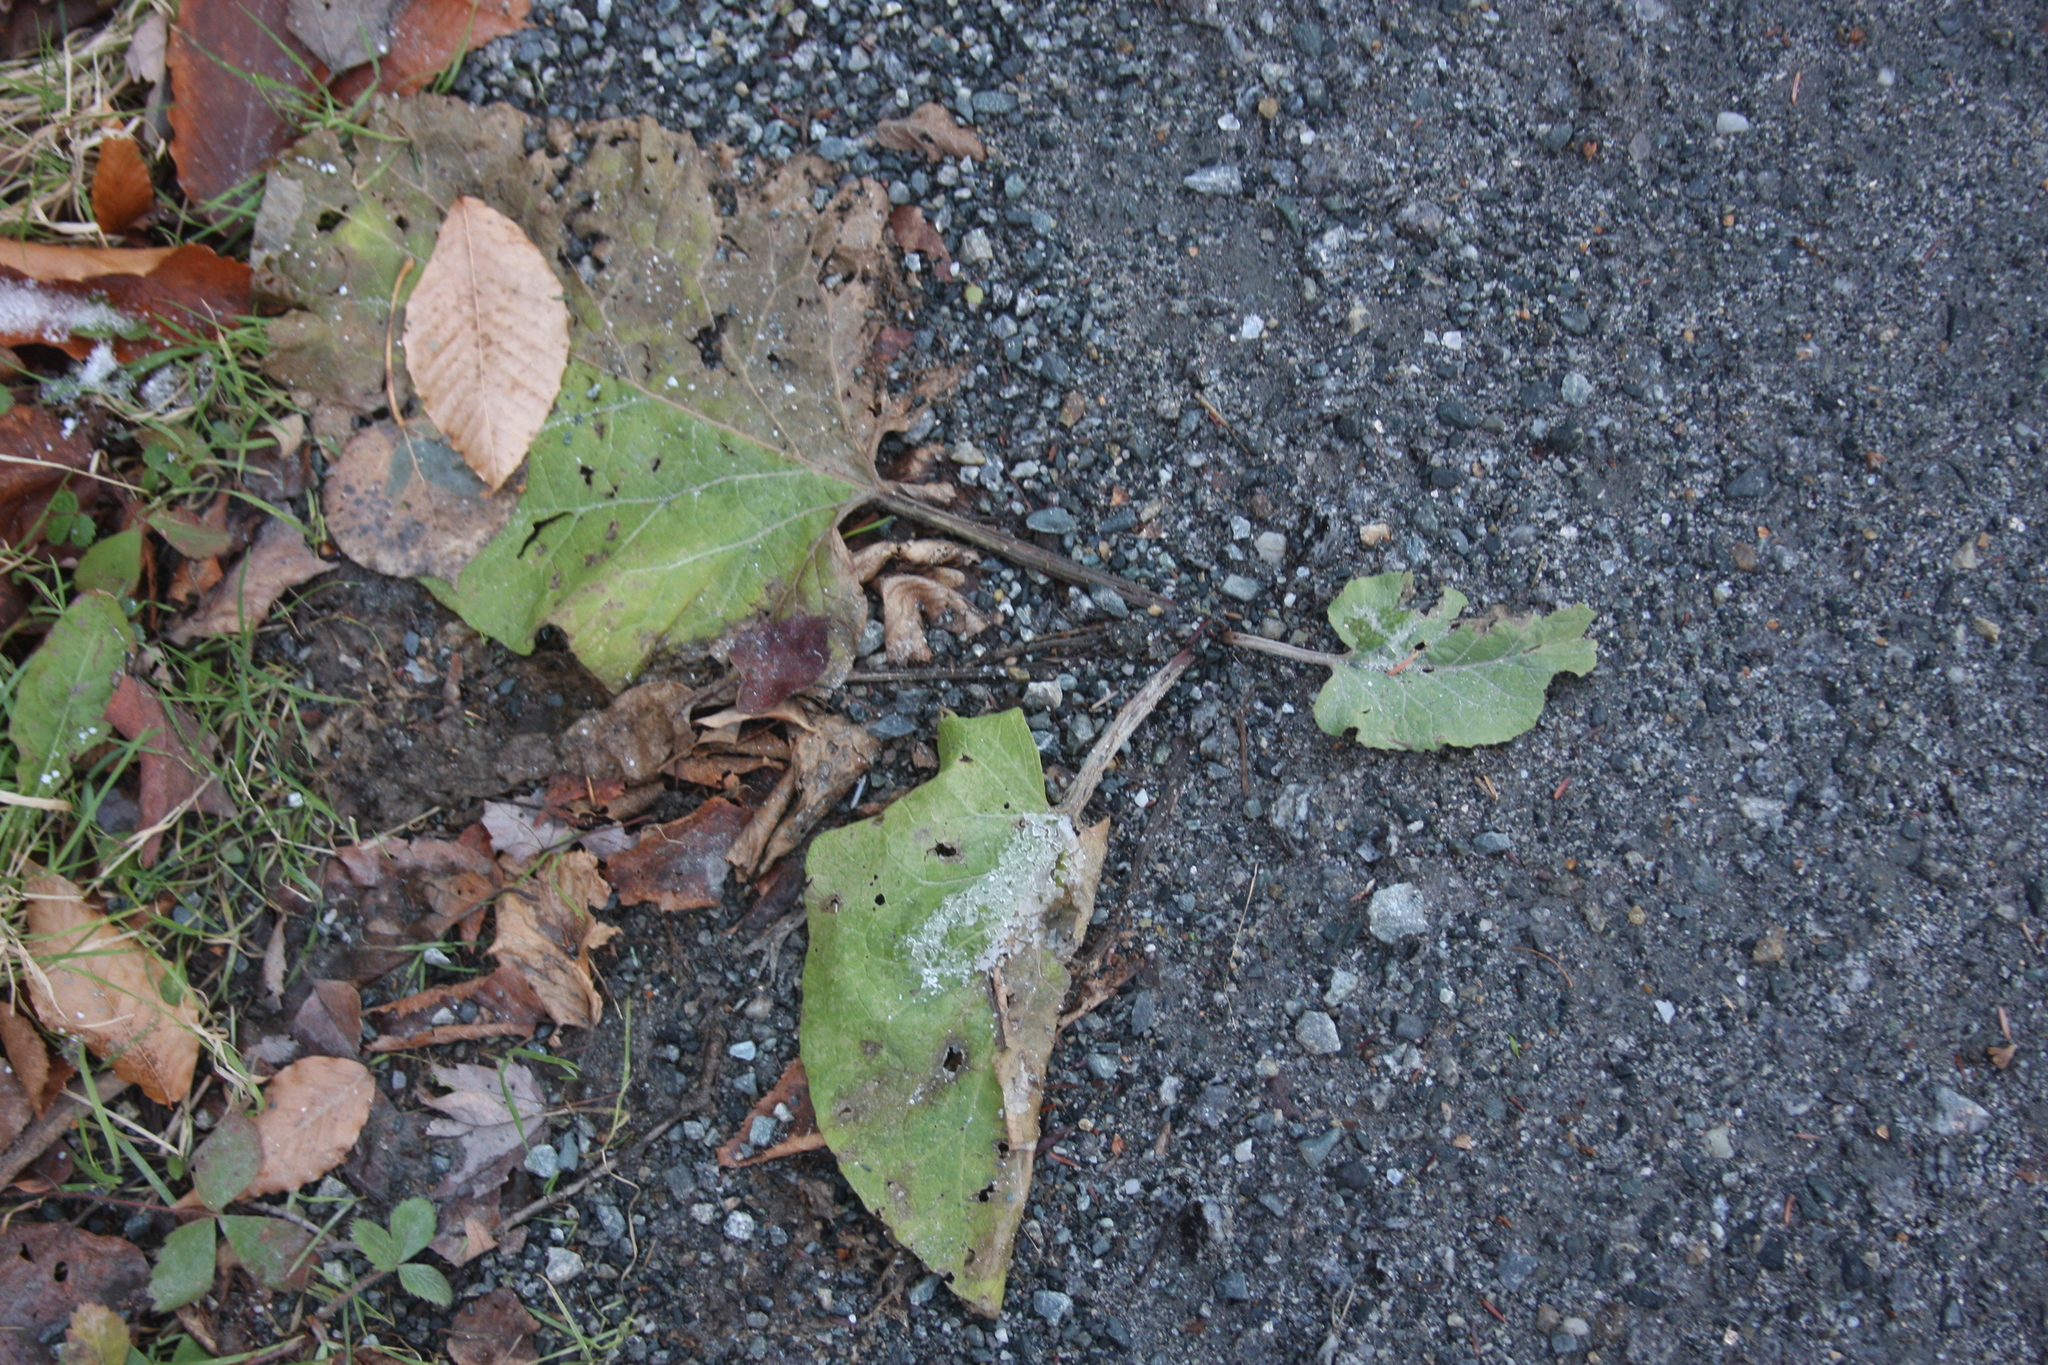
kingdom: Plantae
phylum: Tracheophyta
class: Magnoliopsida
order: Asterales
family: Asteraceae
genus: Tussilago
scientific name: Tussilago farfara
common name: Coltsfoot
